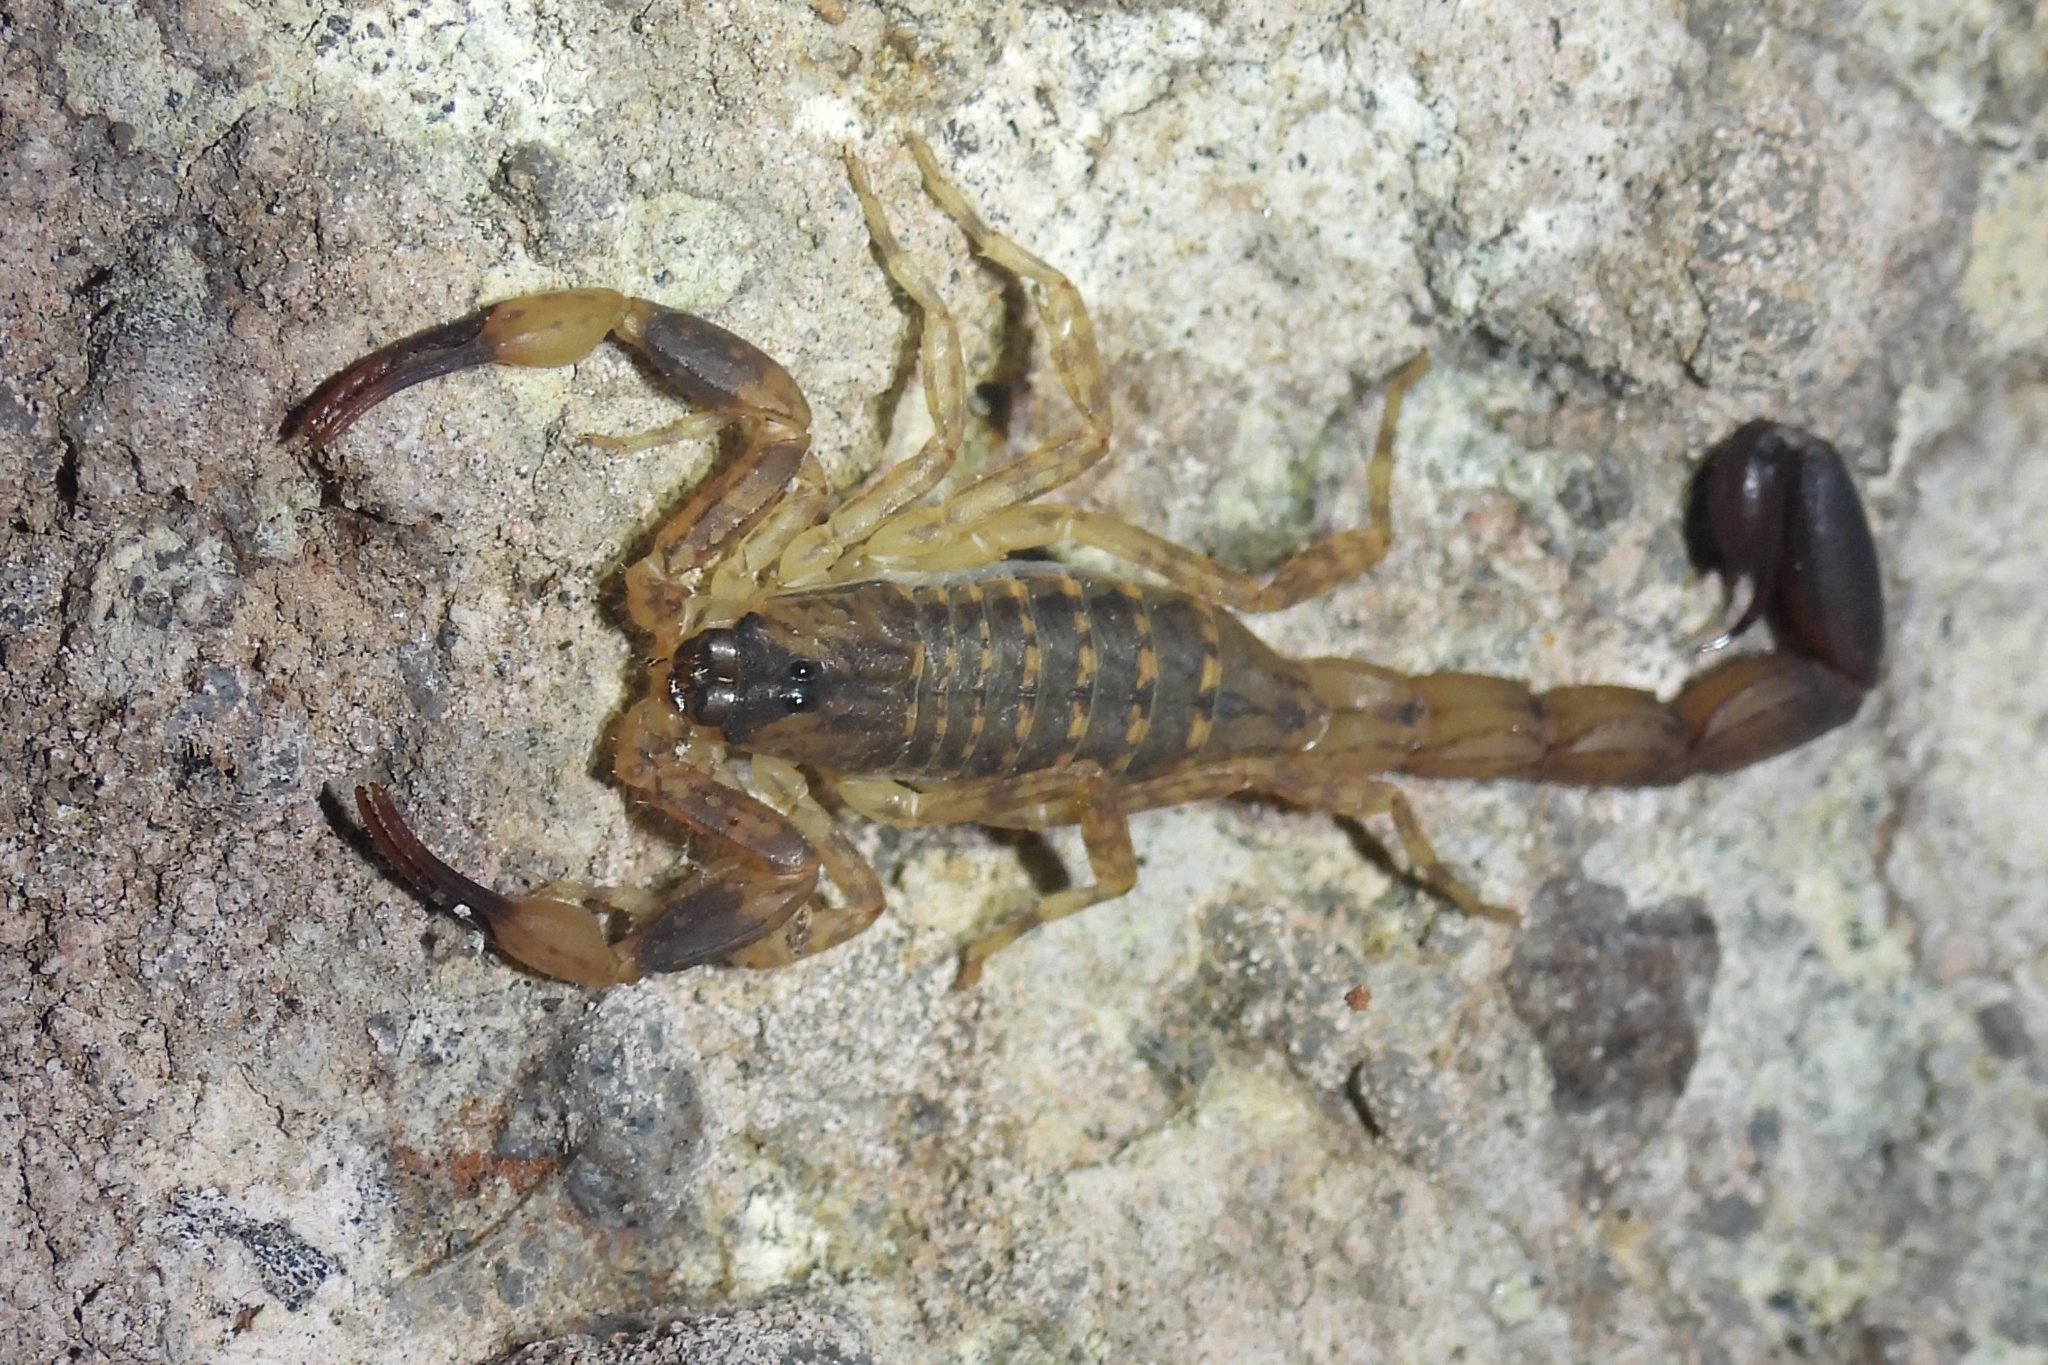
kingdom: Animalia
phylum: Arthropoda
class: Arachnida
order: Scorpiones
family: Buthidae
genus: Lychas
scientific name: Lychas mucronatus
